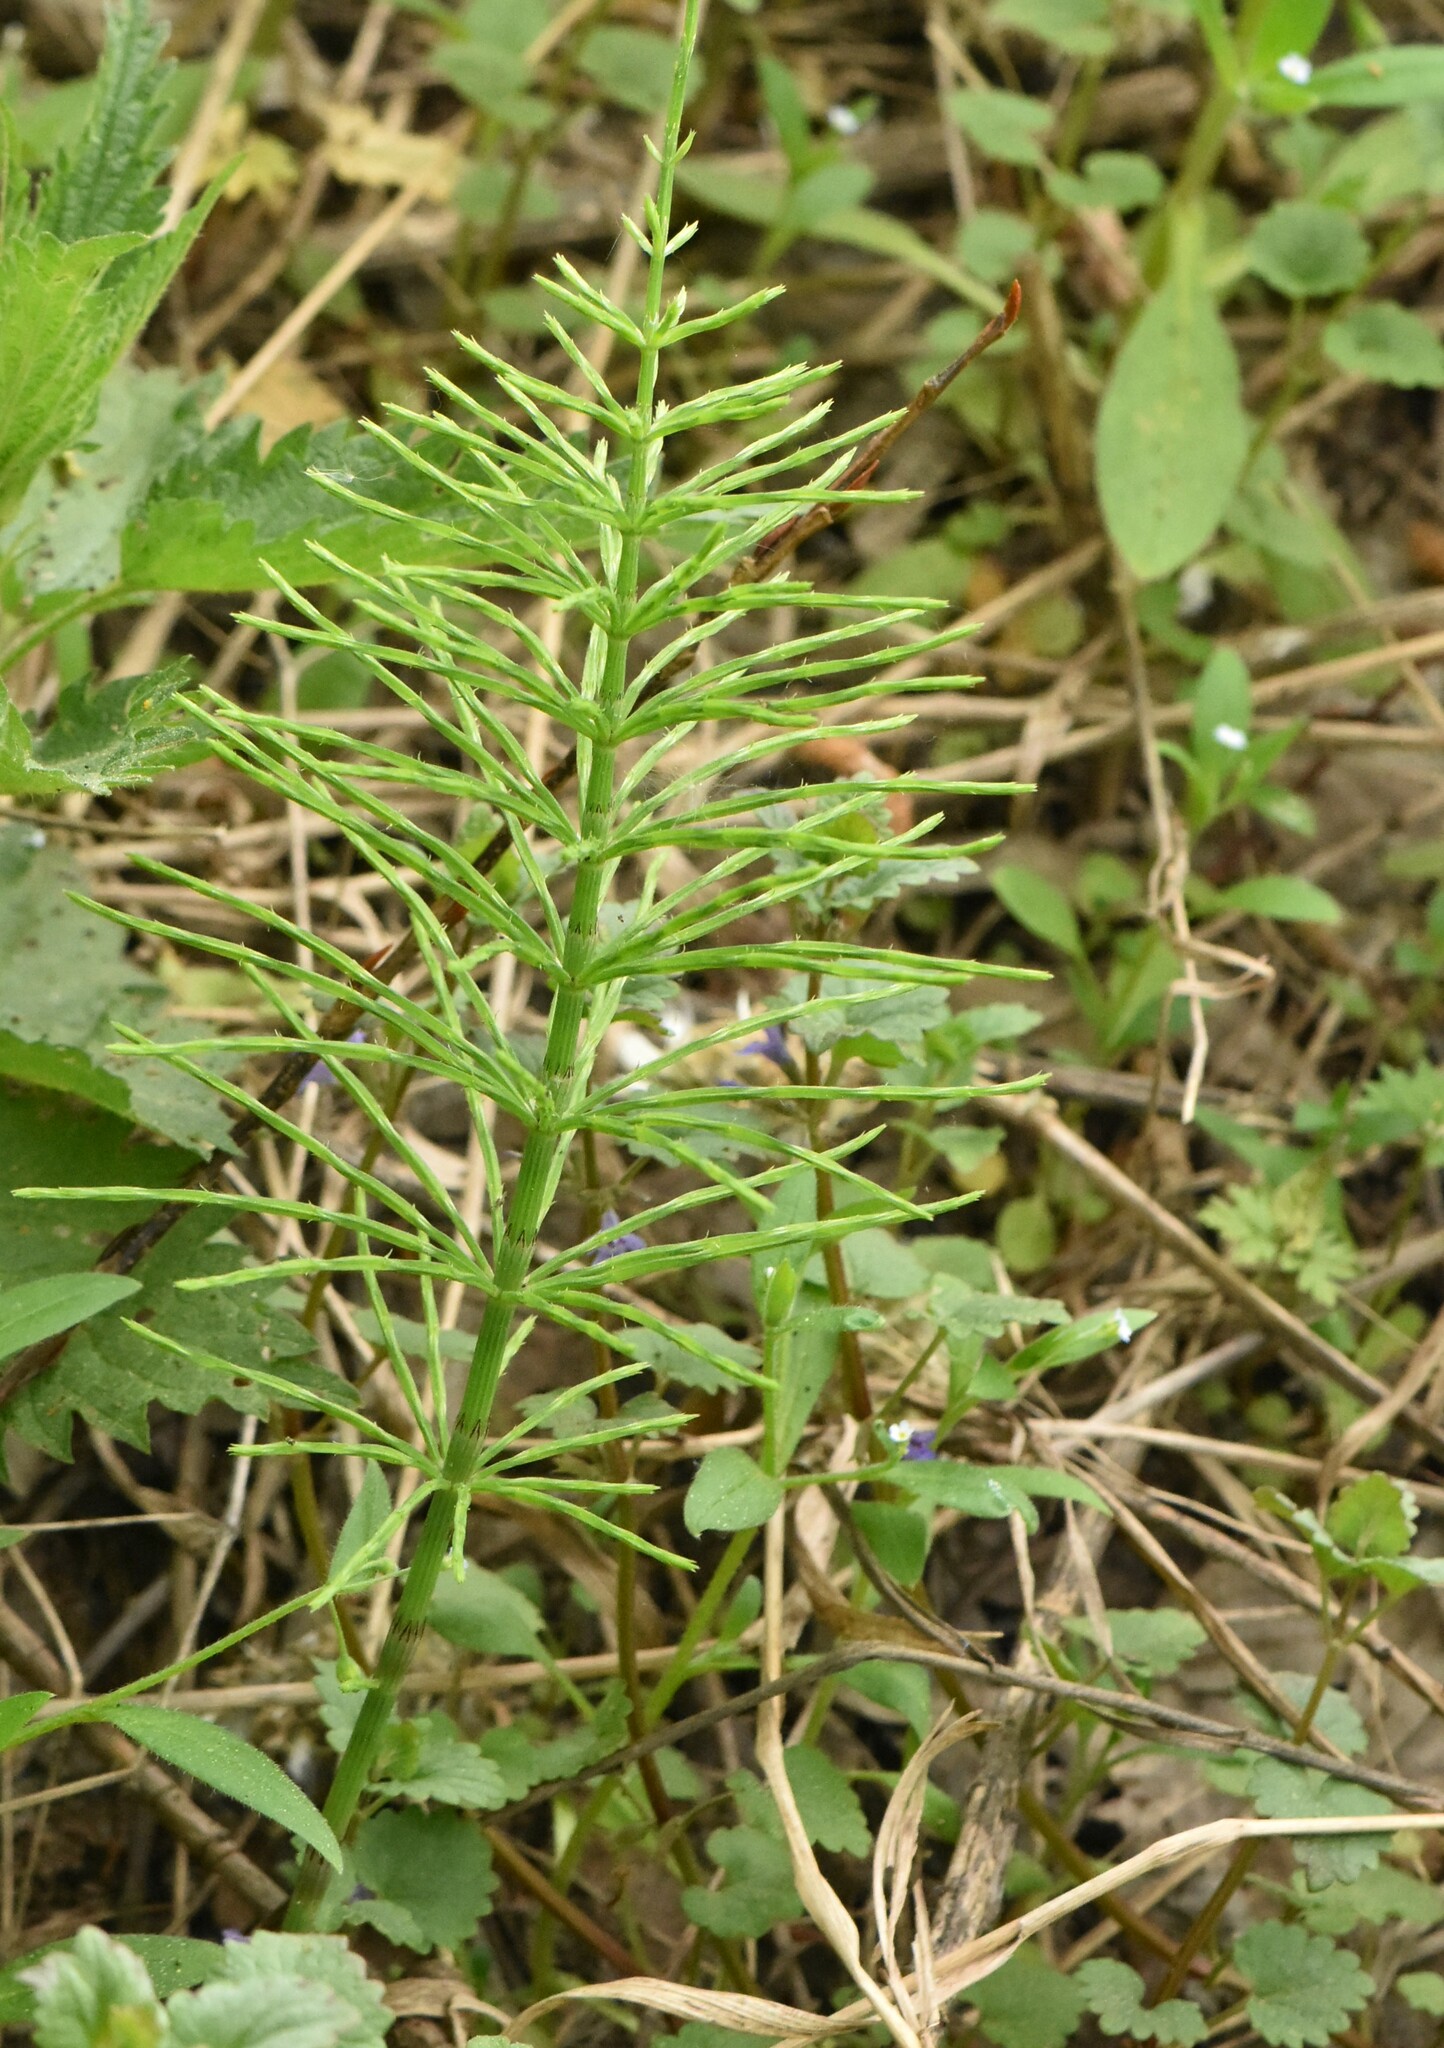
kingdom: Plantae
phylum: Tracheophyta
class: Polypodiopsida
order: Equisetales
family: Equisetaceae
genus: Equisetum
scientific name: Equisetum arvense
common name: Field horsetail
